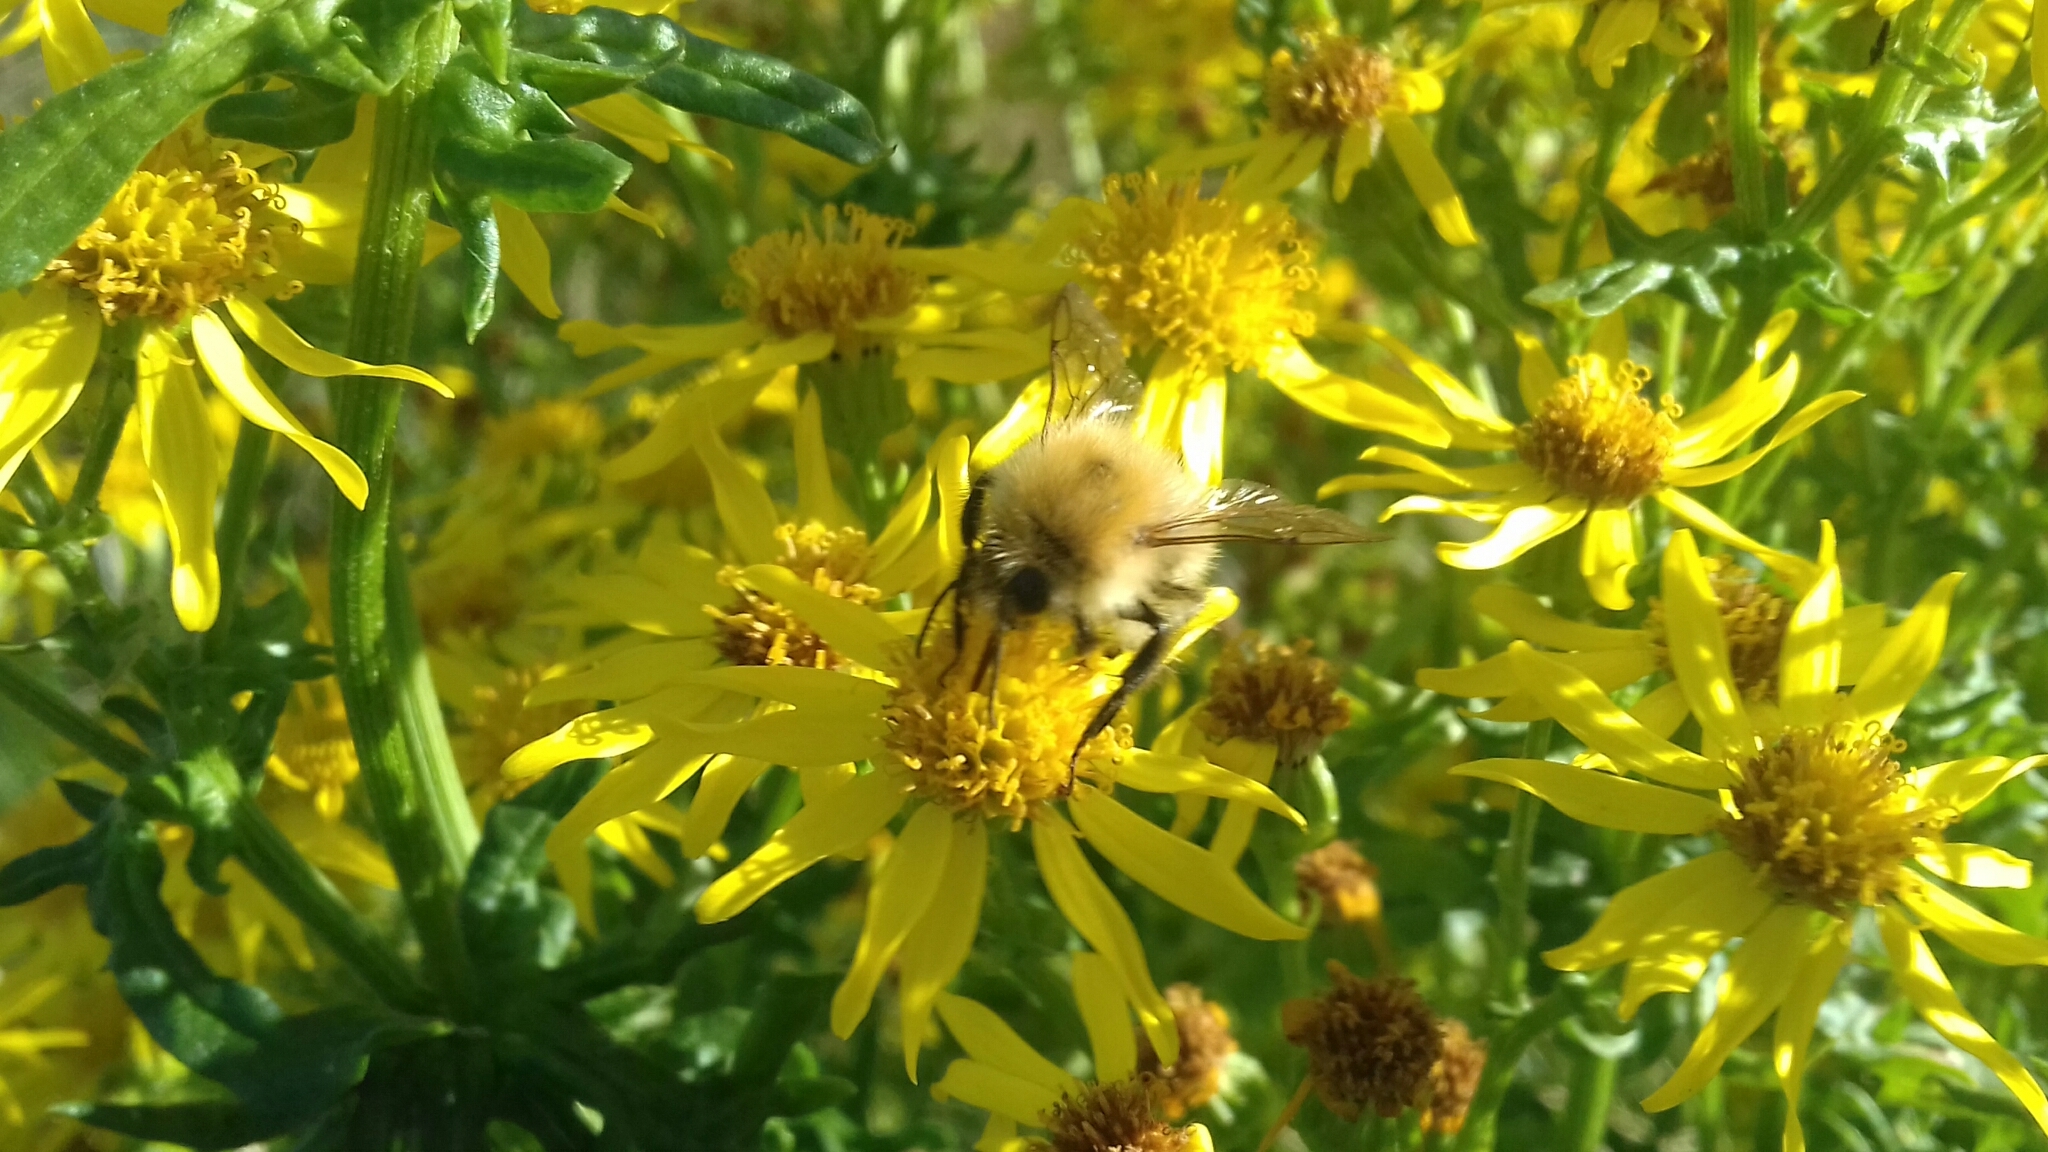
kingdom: Animalia
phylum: Arthropoda
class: Insecta
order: Hymenoptera
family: Apidae
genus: Bombus
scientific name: Bombus pascuorum
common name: Common carder bee
